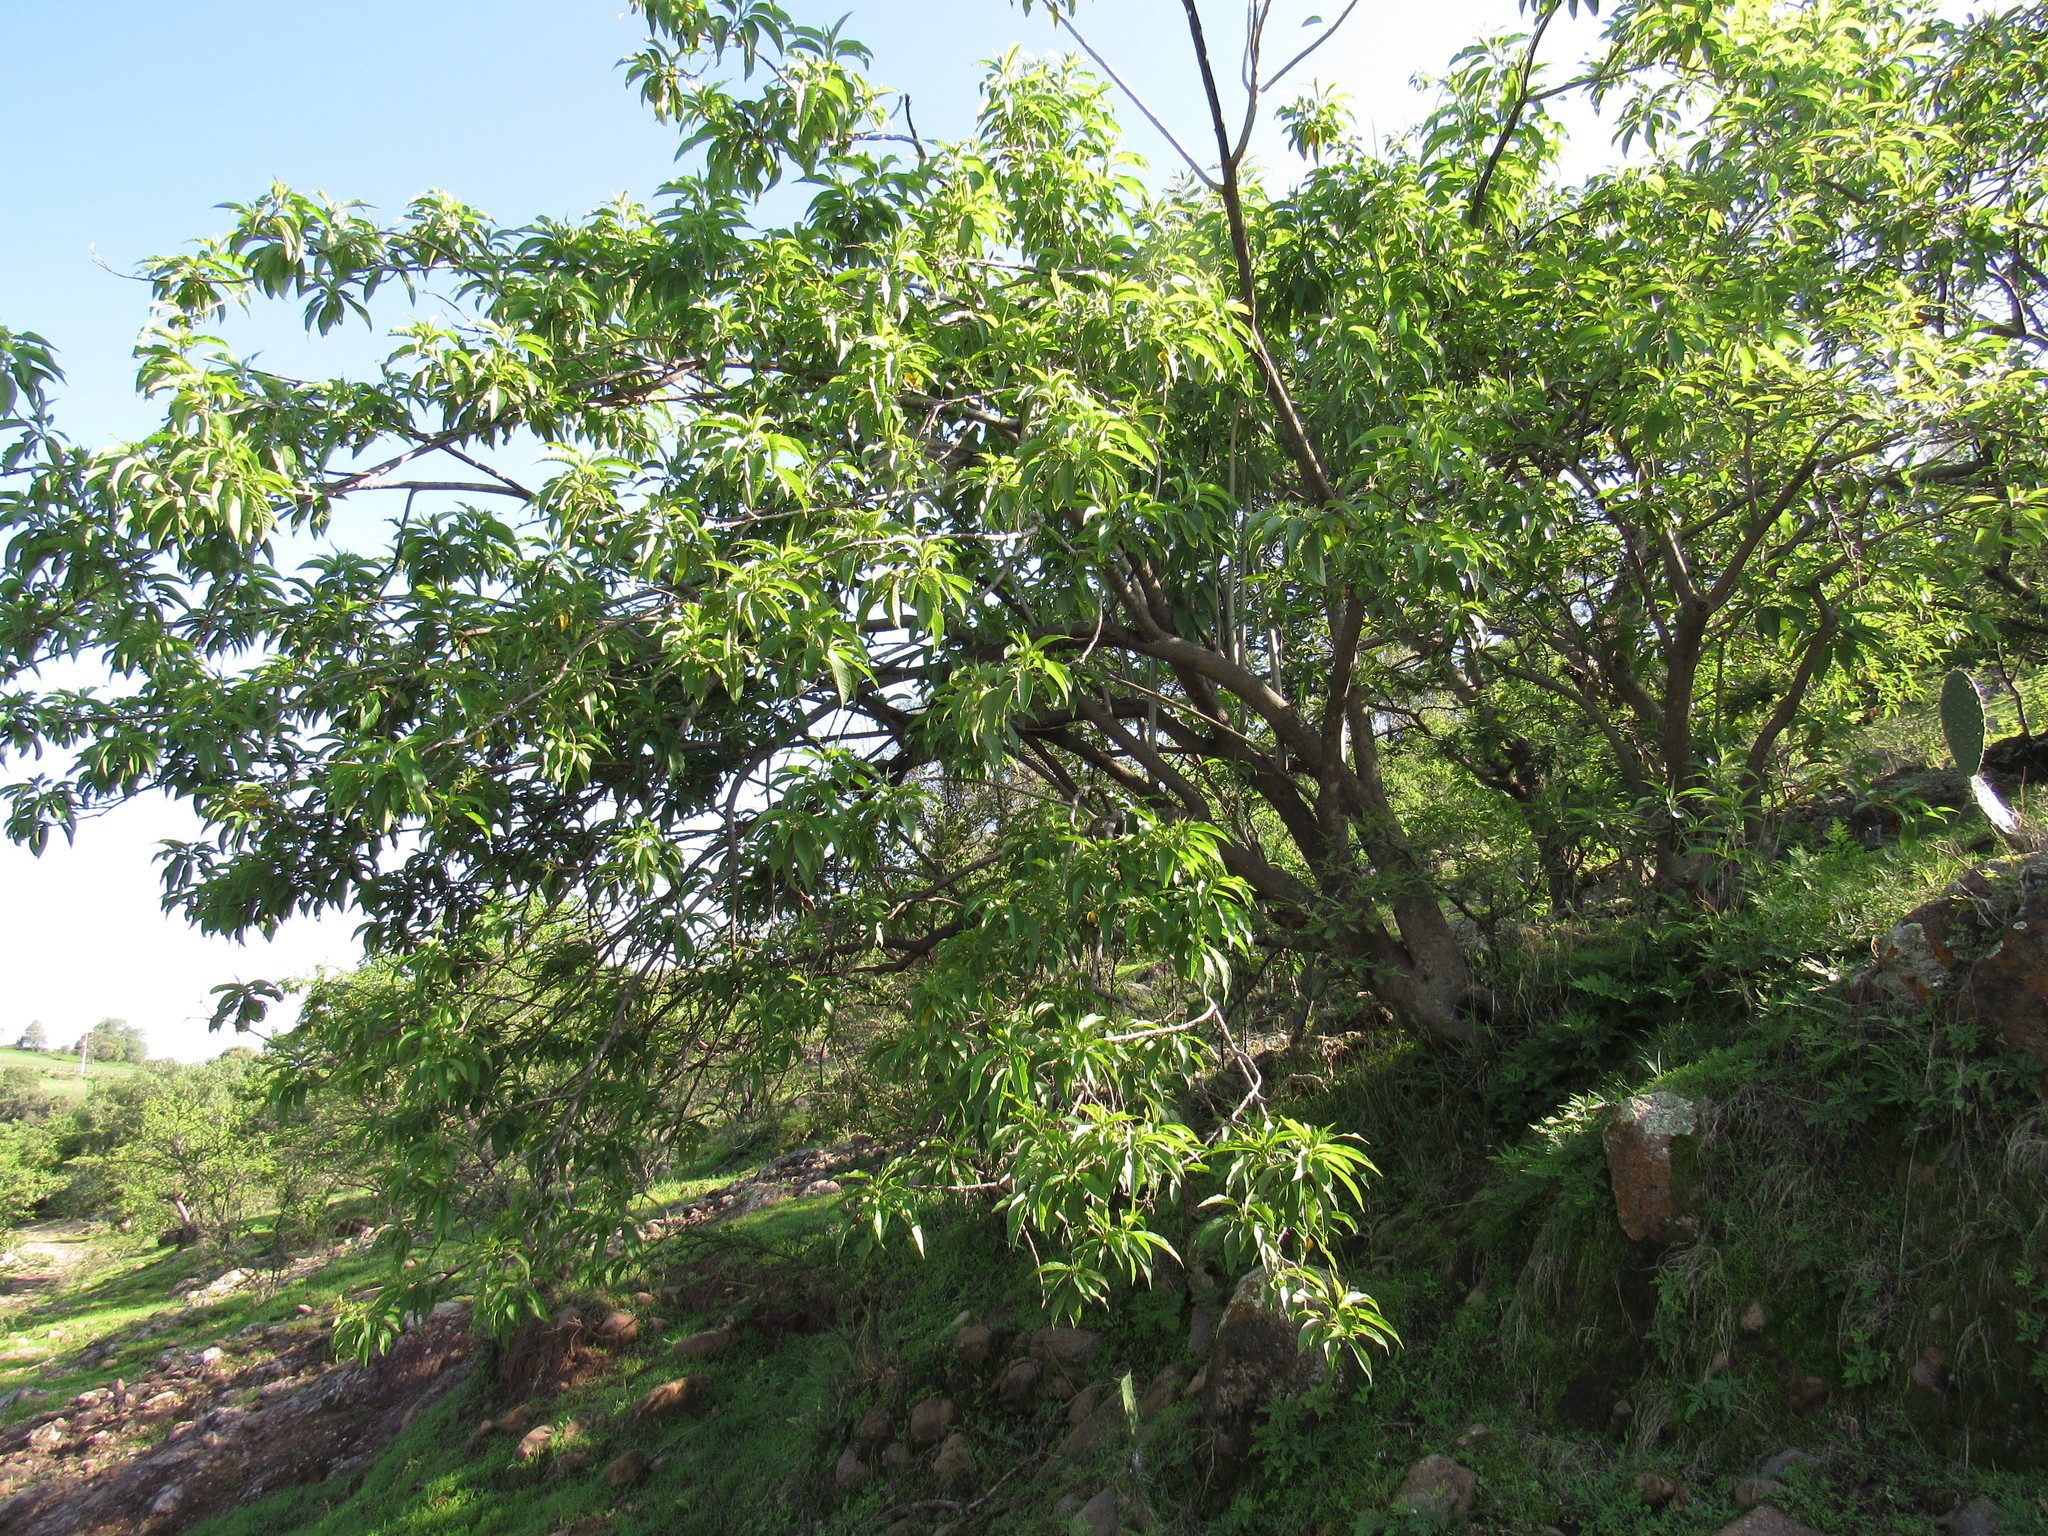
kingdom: Plantae
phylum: Tracheophyta
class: Magnoliopsida
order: Solanales
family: Convolvulaceae
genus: Ipomoea
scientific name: Ipomoea murucoides
